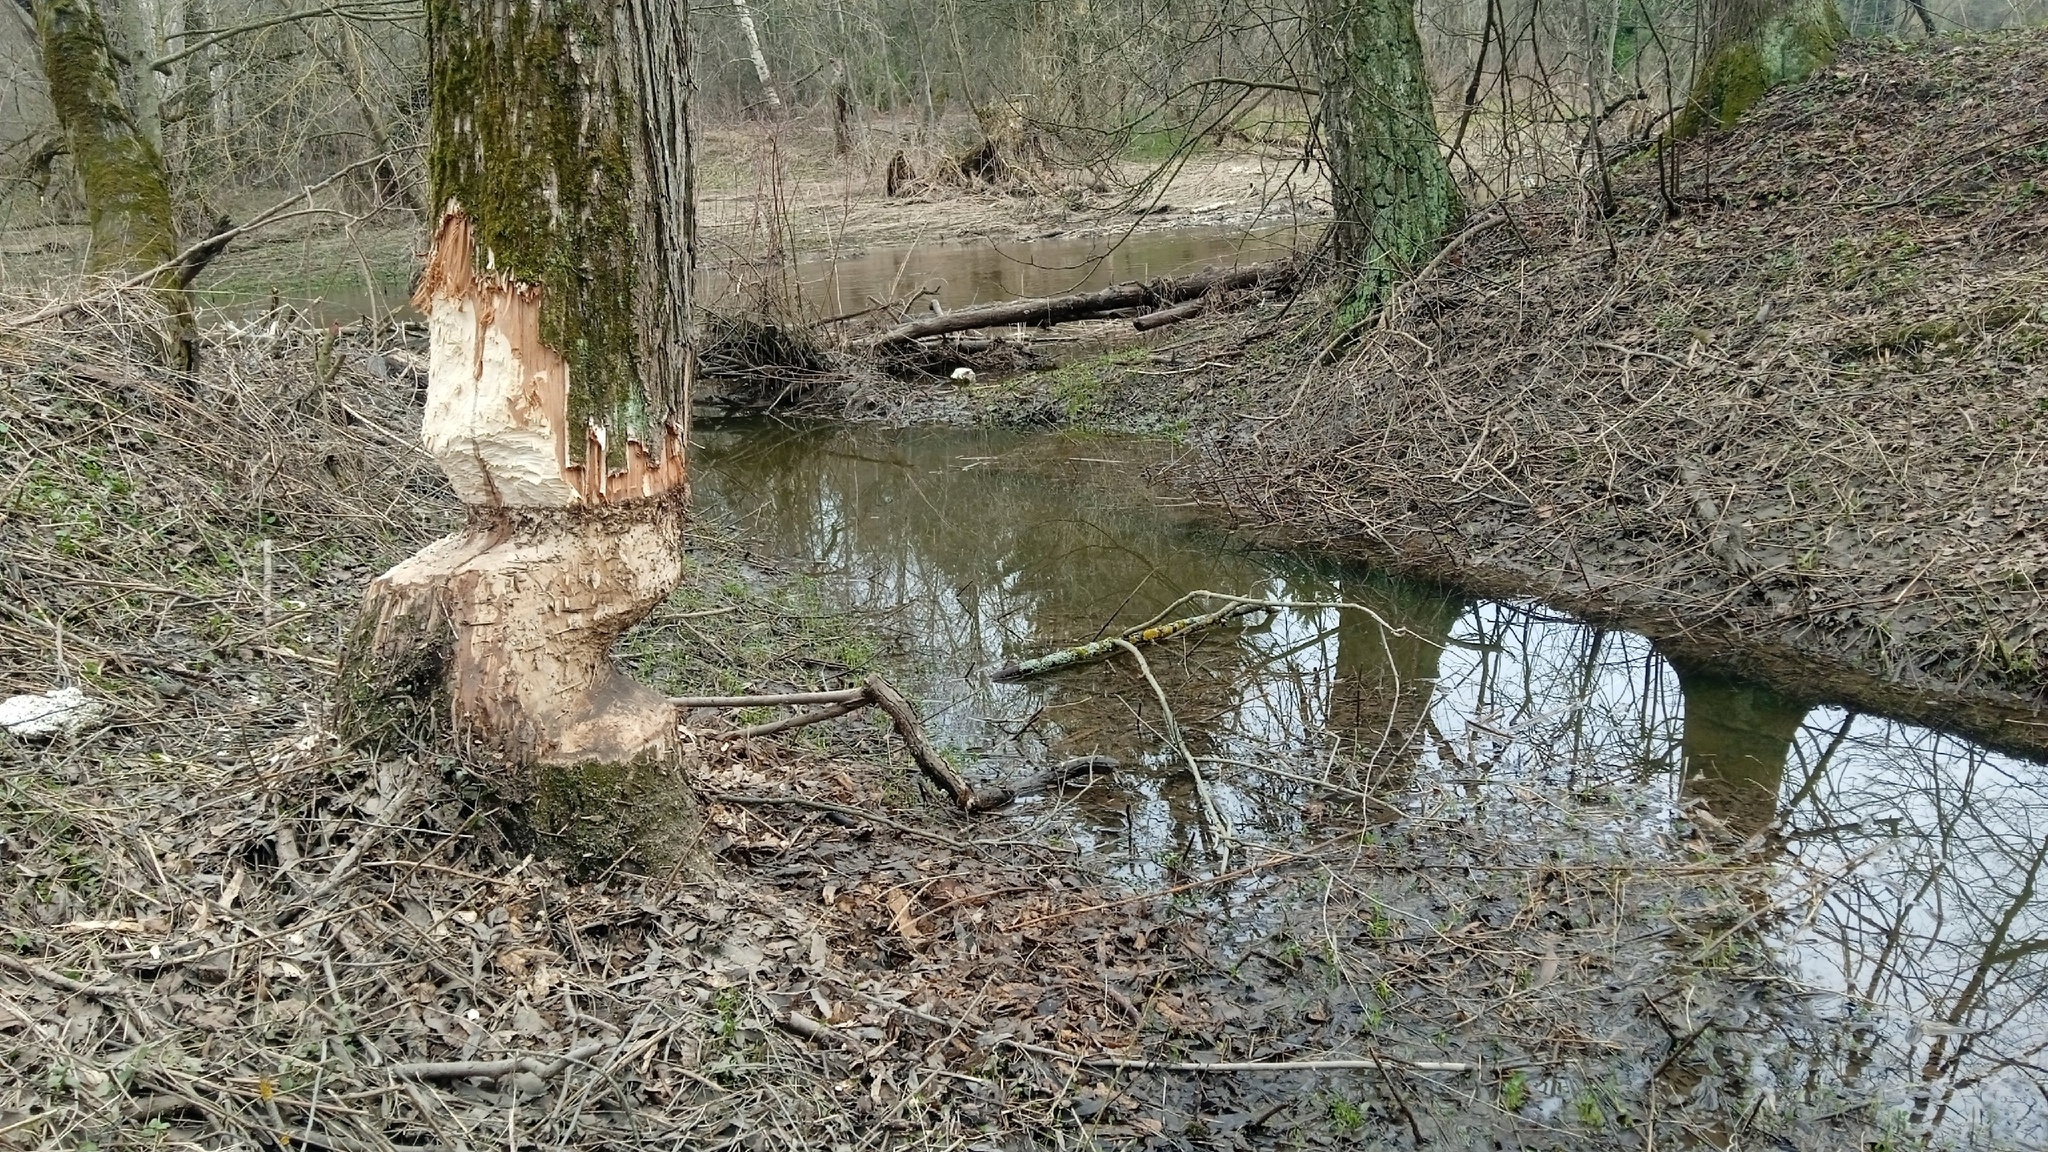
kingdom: Animalia
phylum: Chordata
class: Mammalia
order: Rodentia
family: Castoridae
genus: Castor
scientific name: Castor fiber
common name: Eurasian beaver
